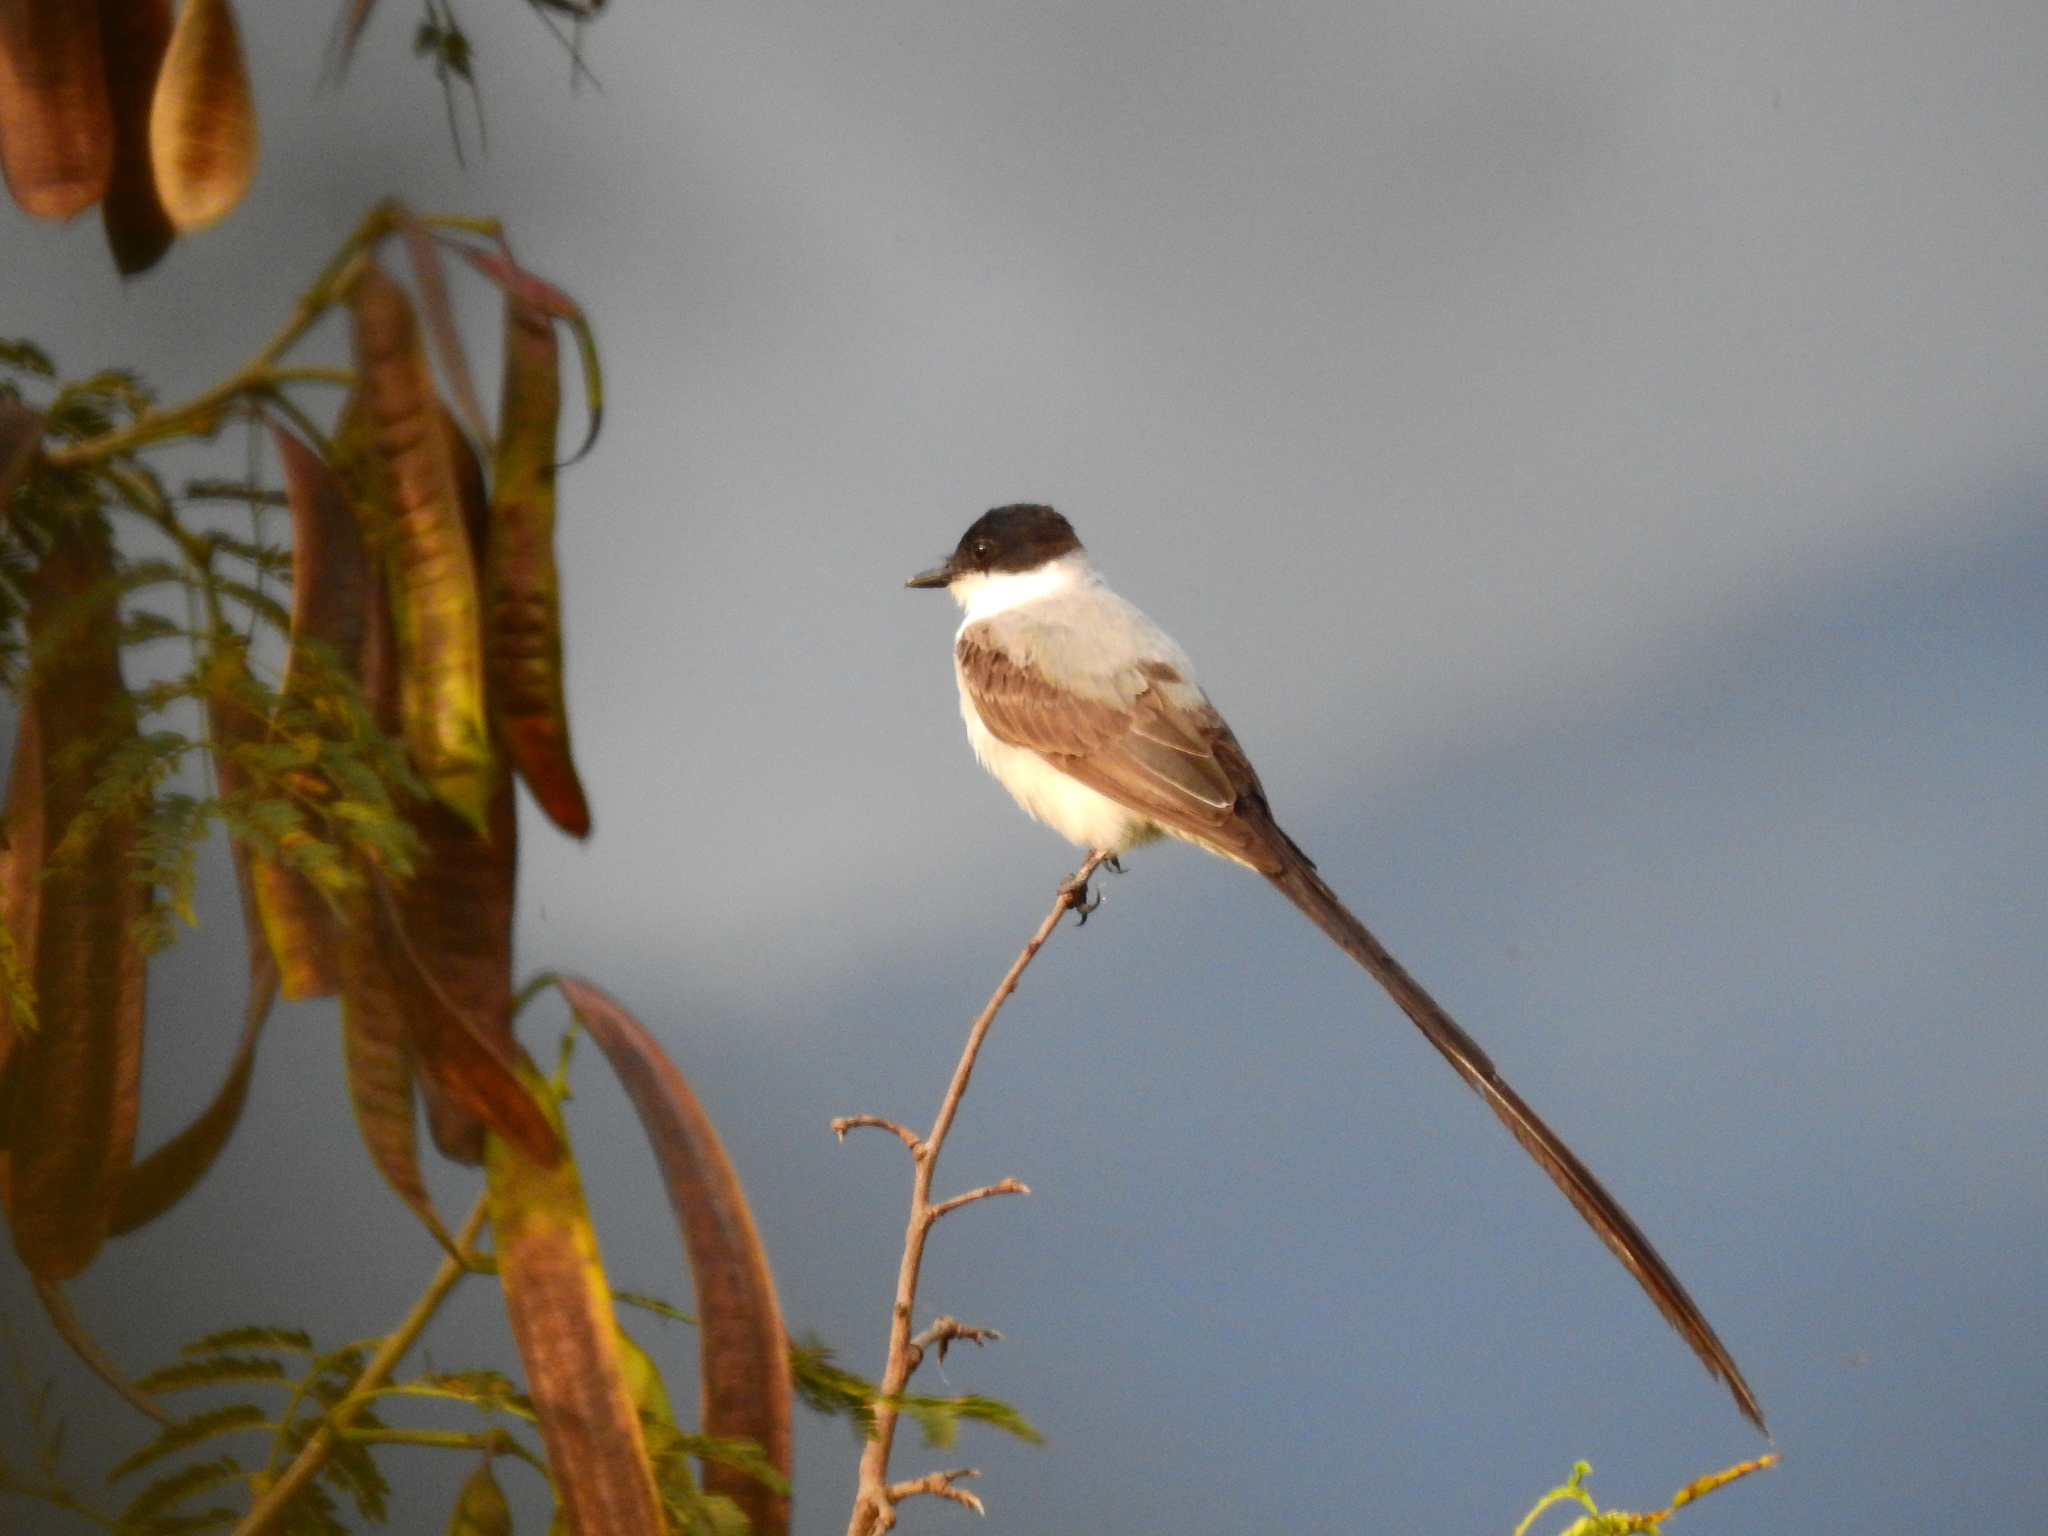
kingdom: Animalia
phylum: Chordata
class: Aves
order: Passeriformes
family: Tyrannidae
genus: Tyrannus
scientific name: Tyrannus savana
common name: Fork-tailed flycatcher
